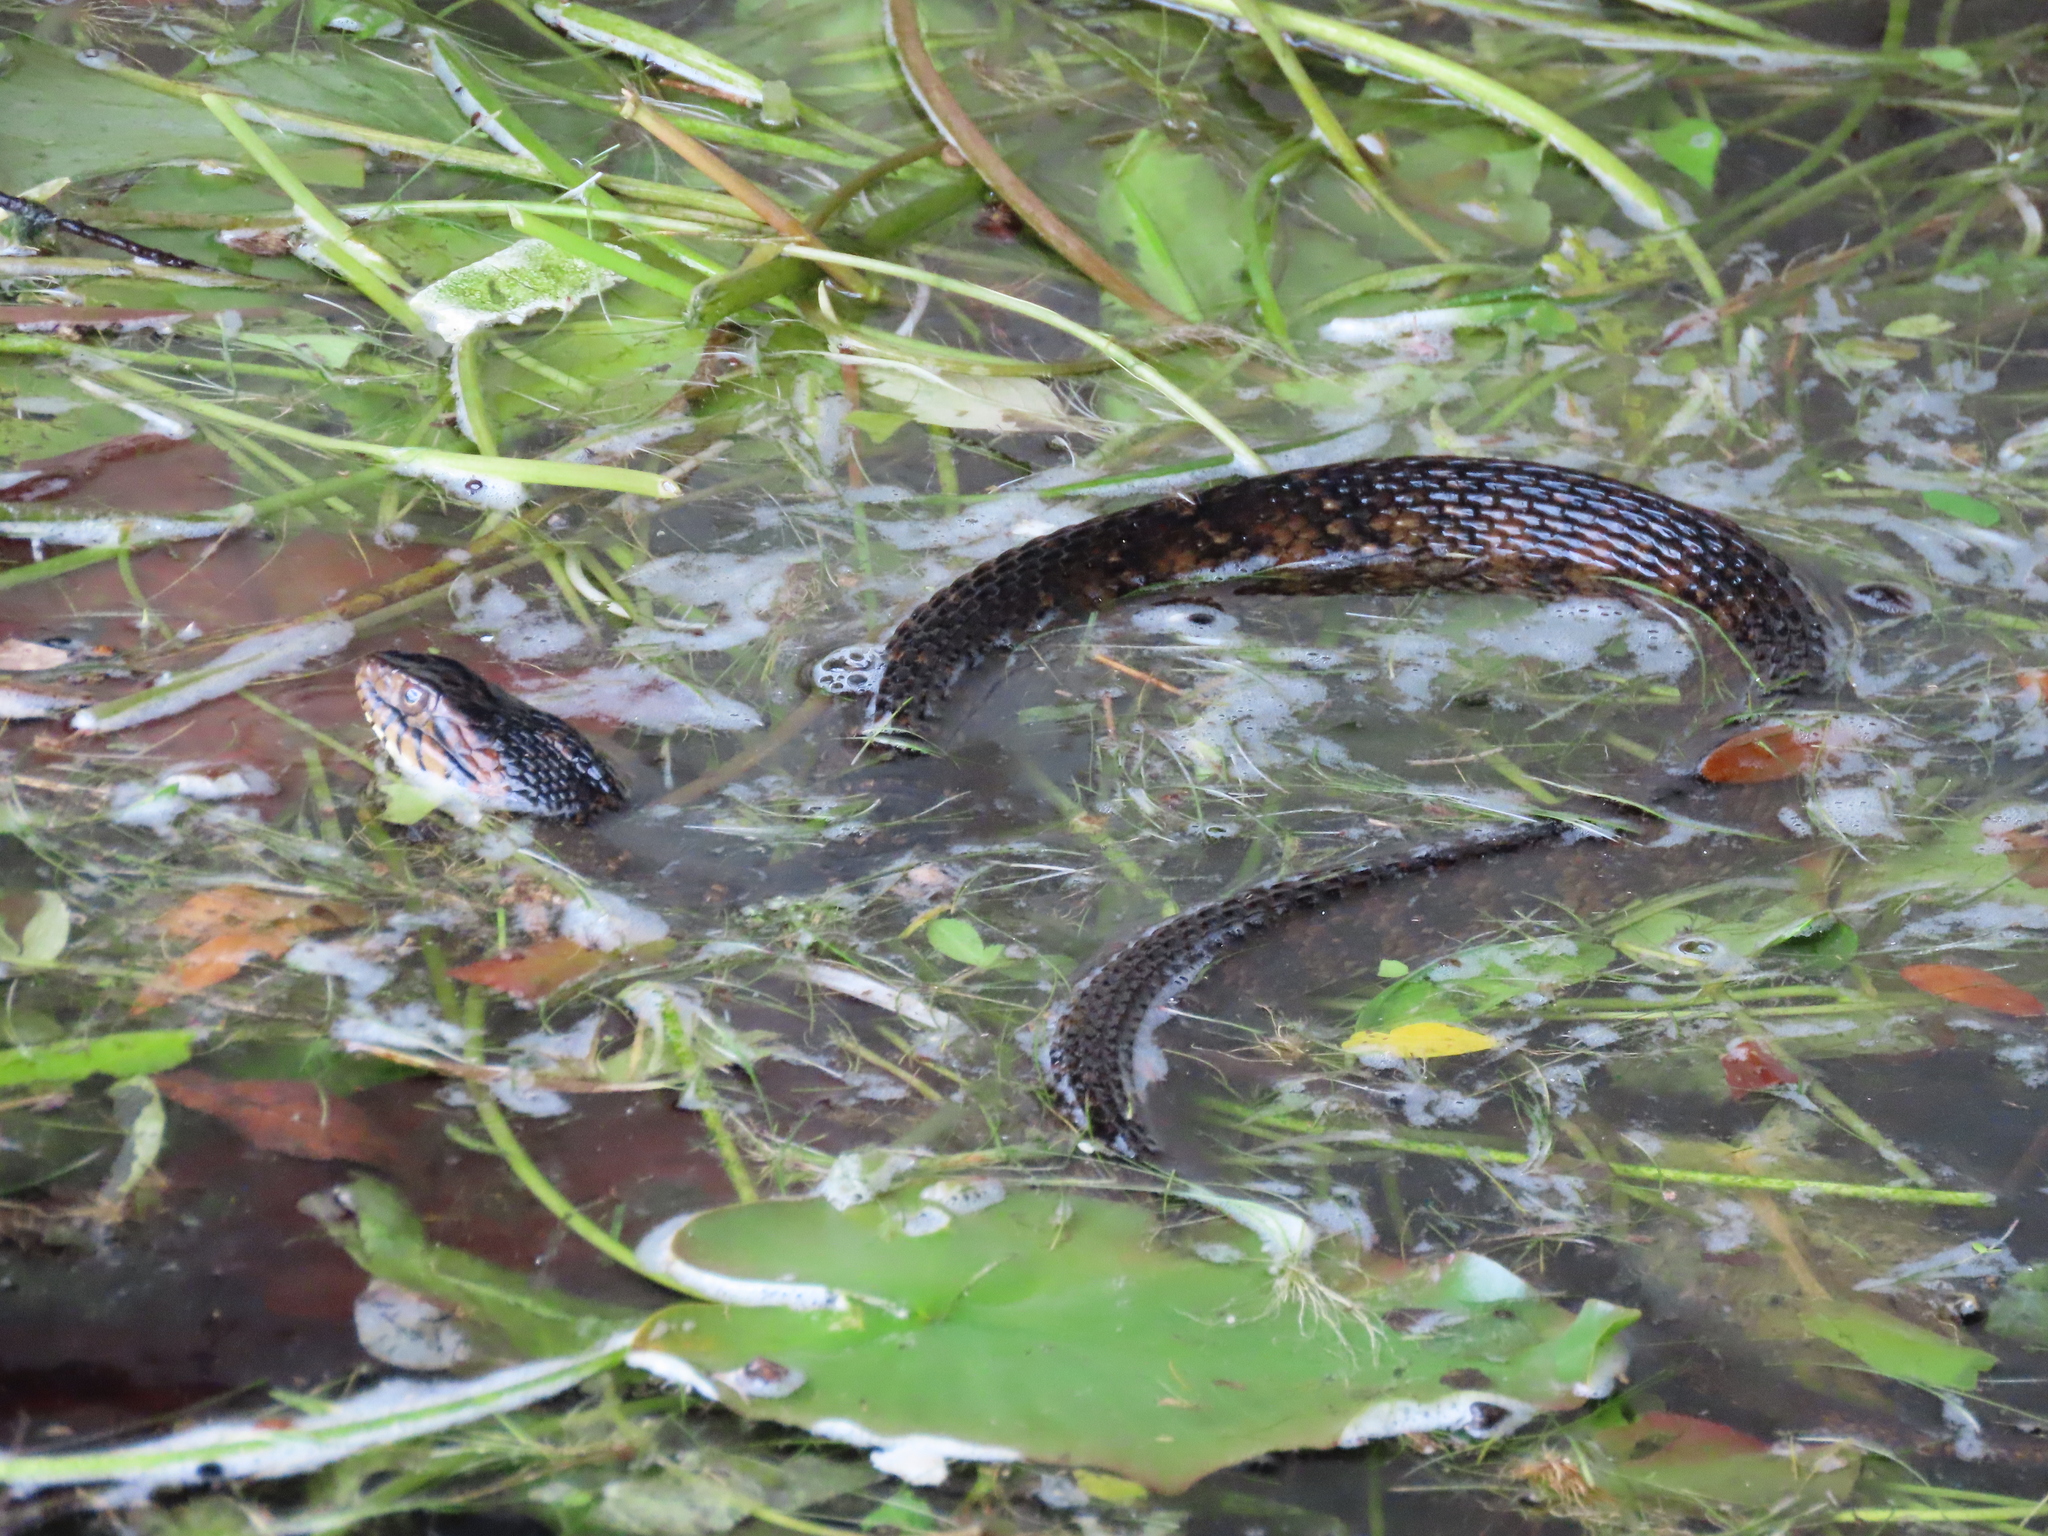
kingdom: Animalia
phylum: Chordata
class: Squamata
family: Colubridae
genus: Nerodia
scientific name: Nerodia fasciata
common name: Southern water snake
